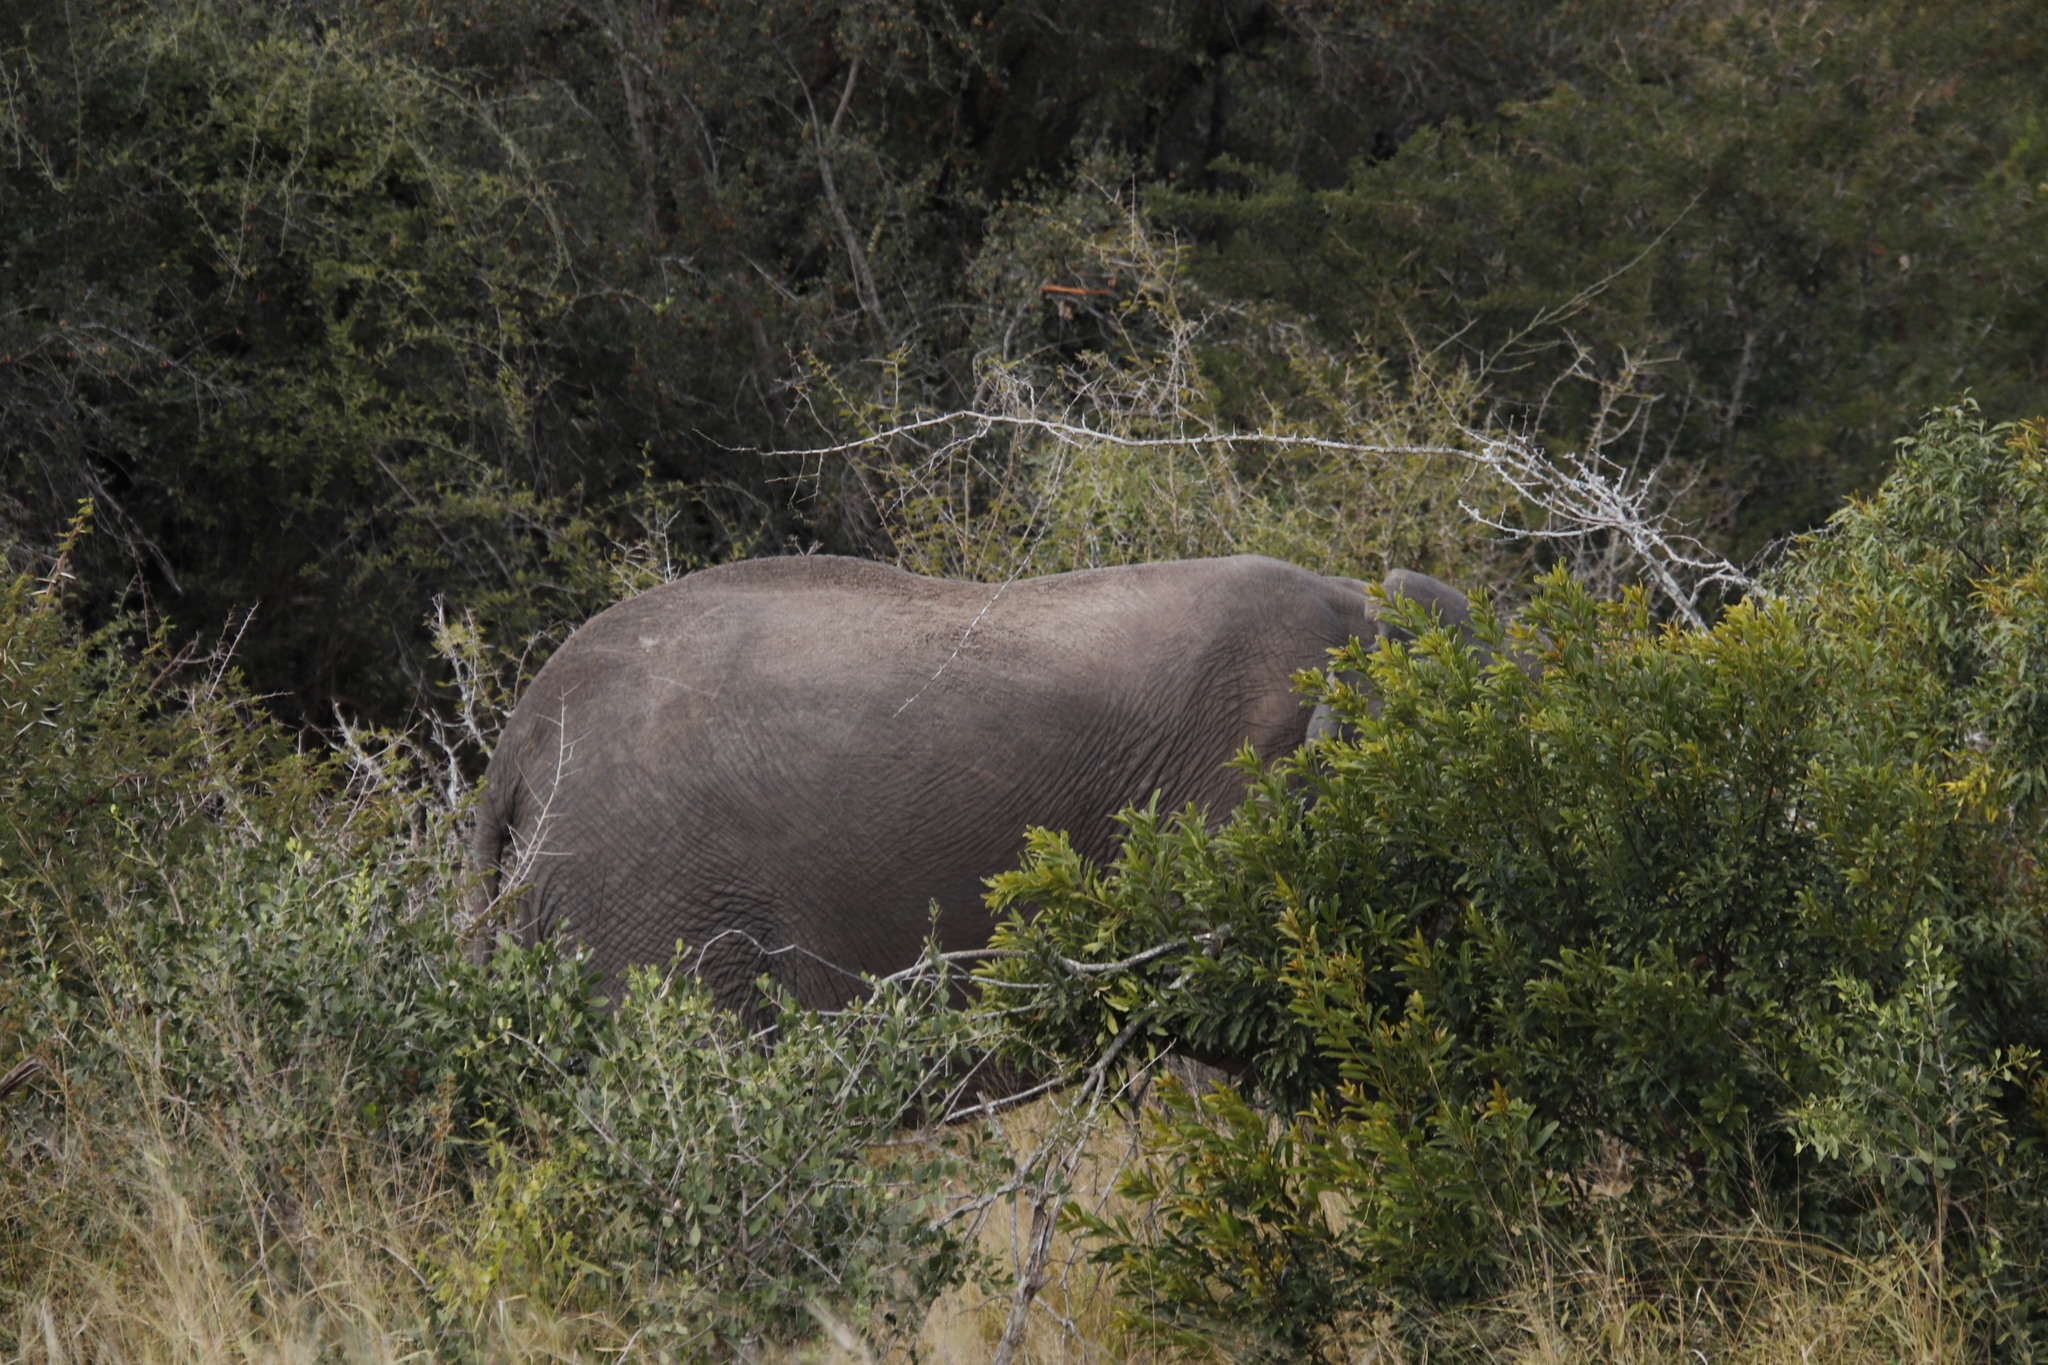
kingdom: Animalia
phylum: Chordata
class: Mammalia
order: Proboscidea
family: Elephantidae
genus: Loxodonta
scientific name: Loxodonta africana
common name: African elephant
